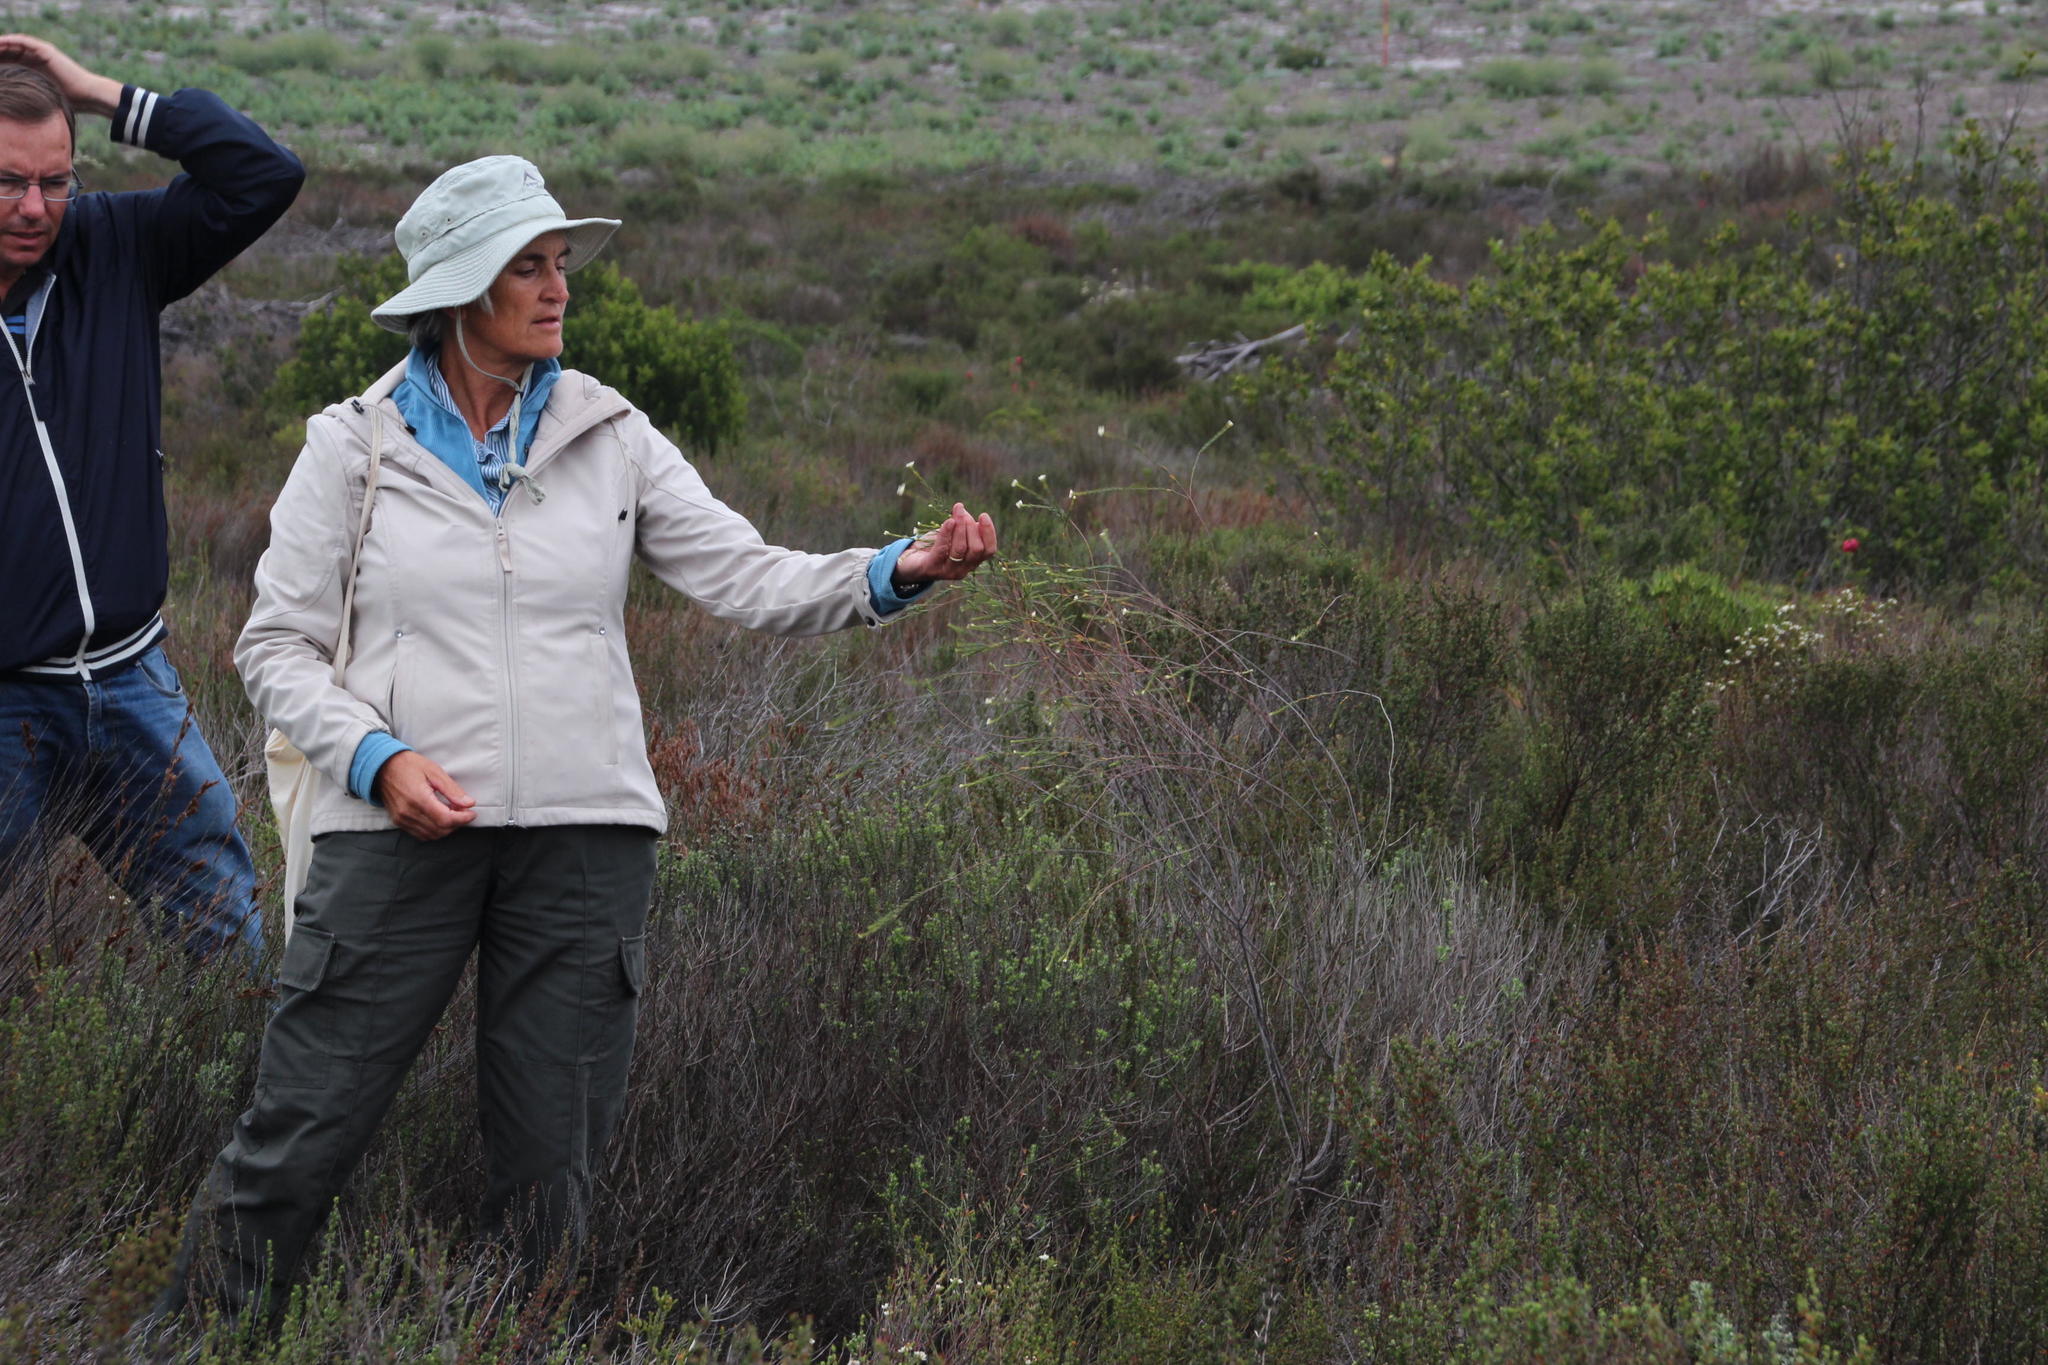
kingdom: Plantae
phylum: Tracheophyta
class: Magnoliopsida
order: Malvales
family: Thymelaeaceae
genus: Lachnaea
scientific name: Lachnaea capitata
